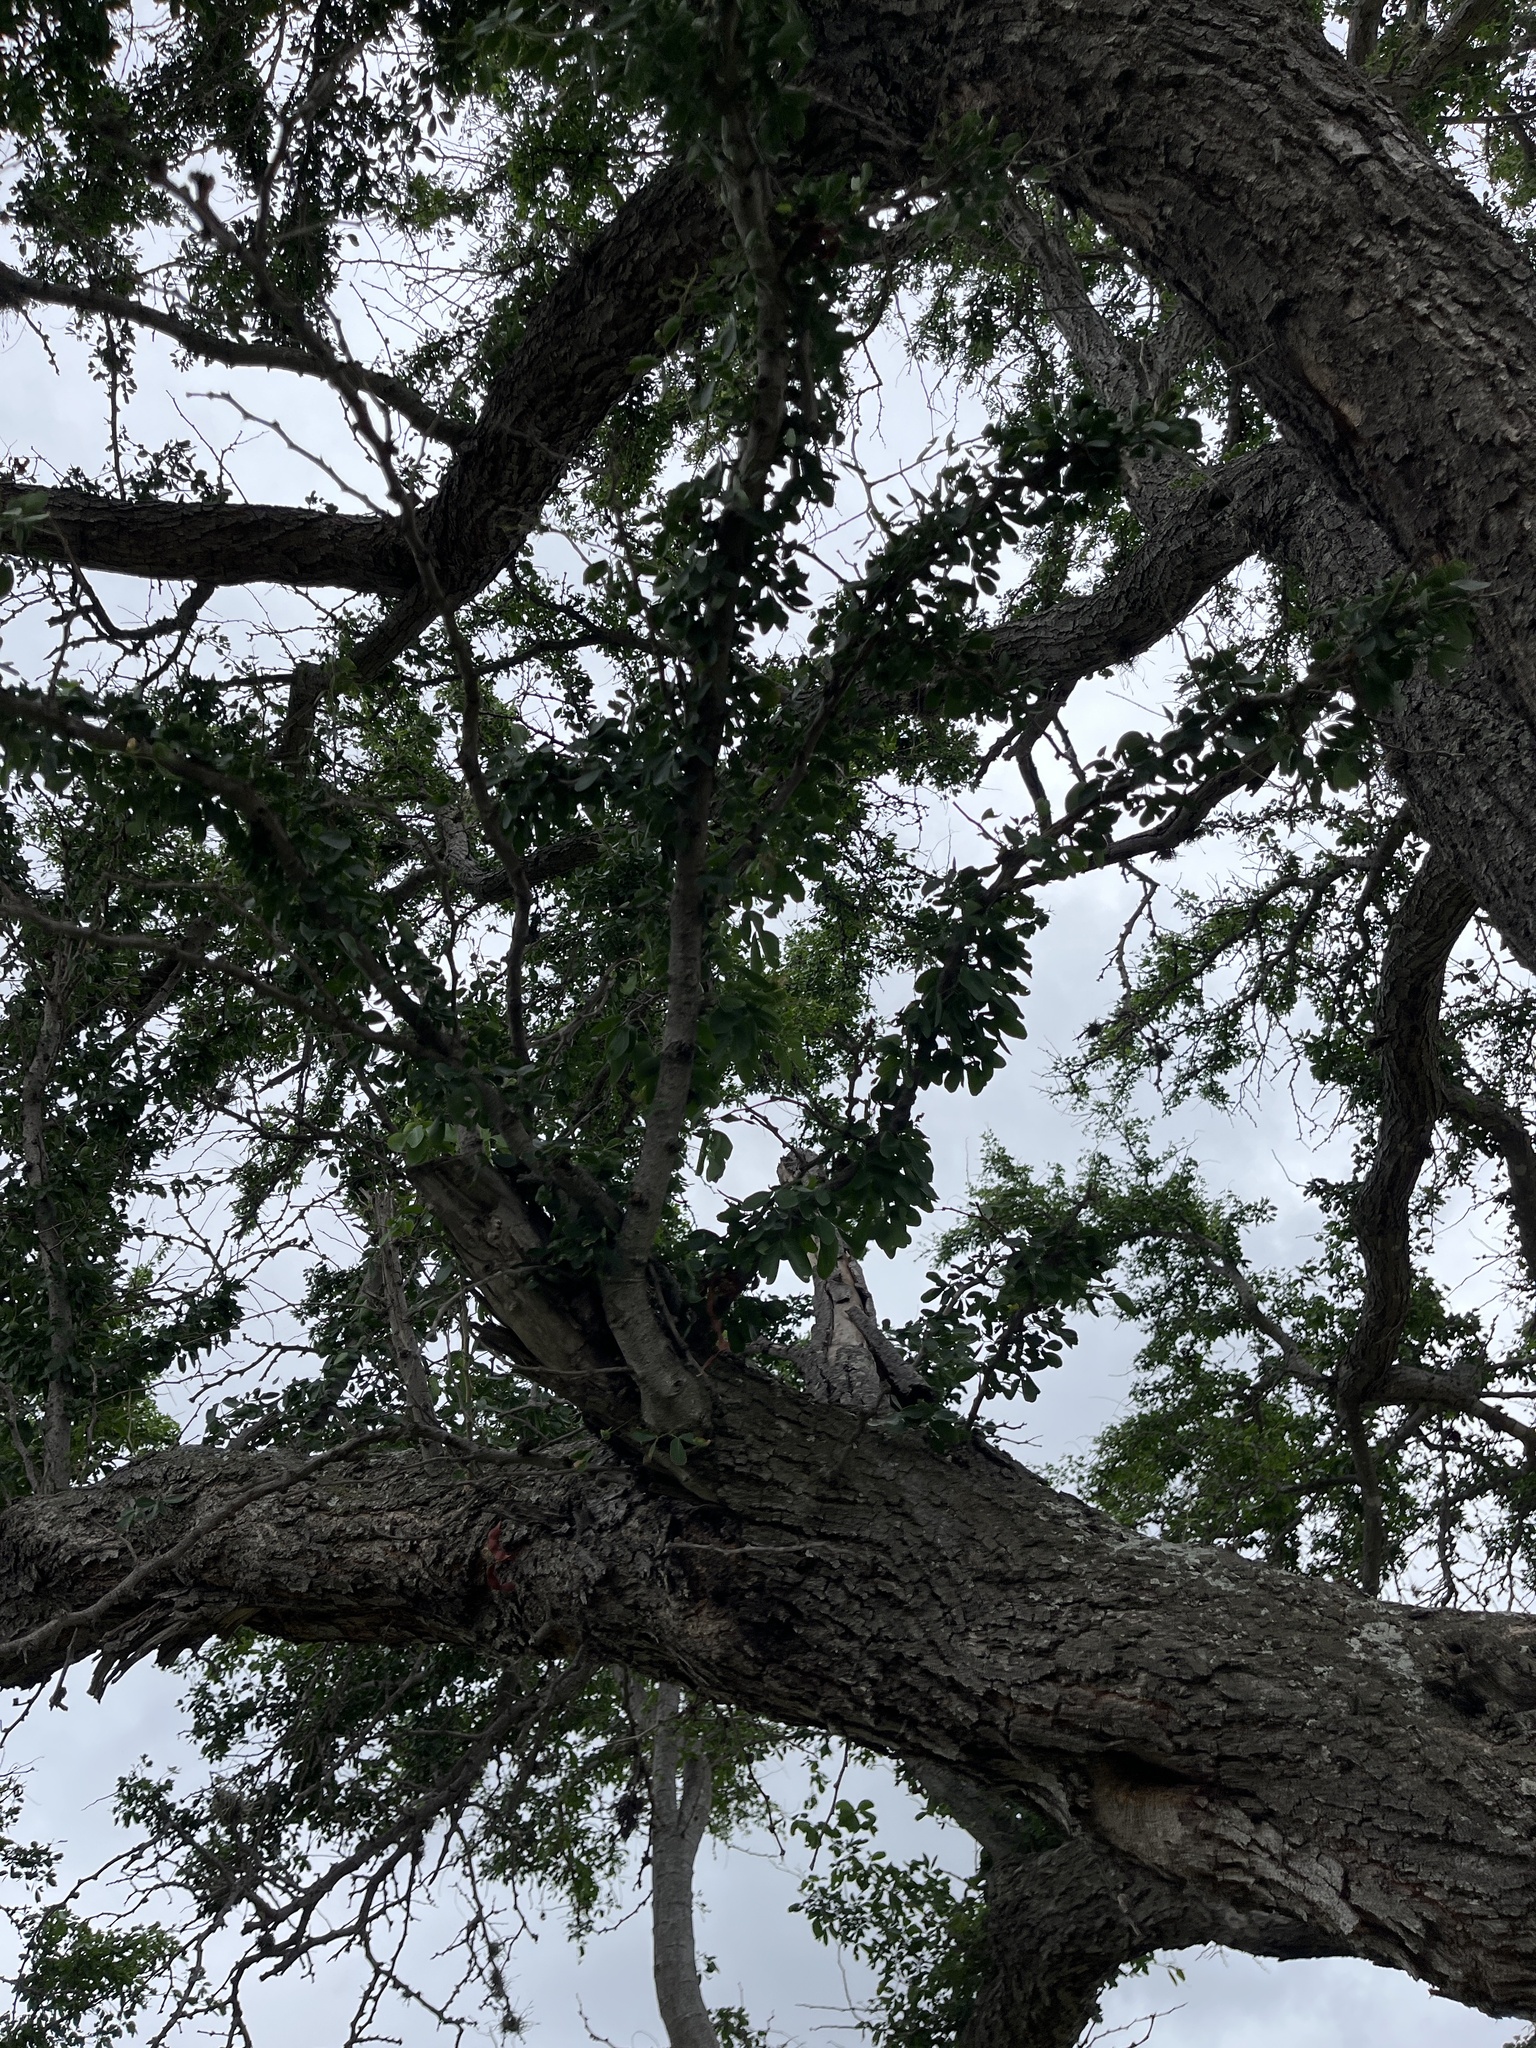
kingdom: Plantae
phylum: Tracheophyta
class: Magnoliopsida
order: Fabales
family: Fabaceae
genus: Pithecellobium
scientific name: Pithecellobium dulce
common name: Monkeypod
